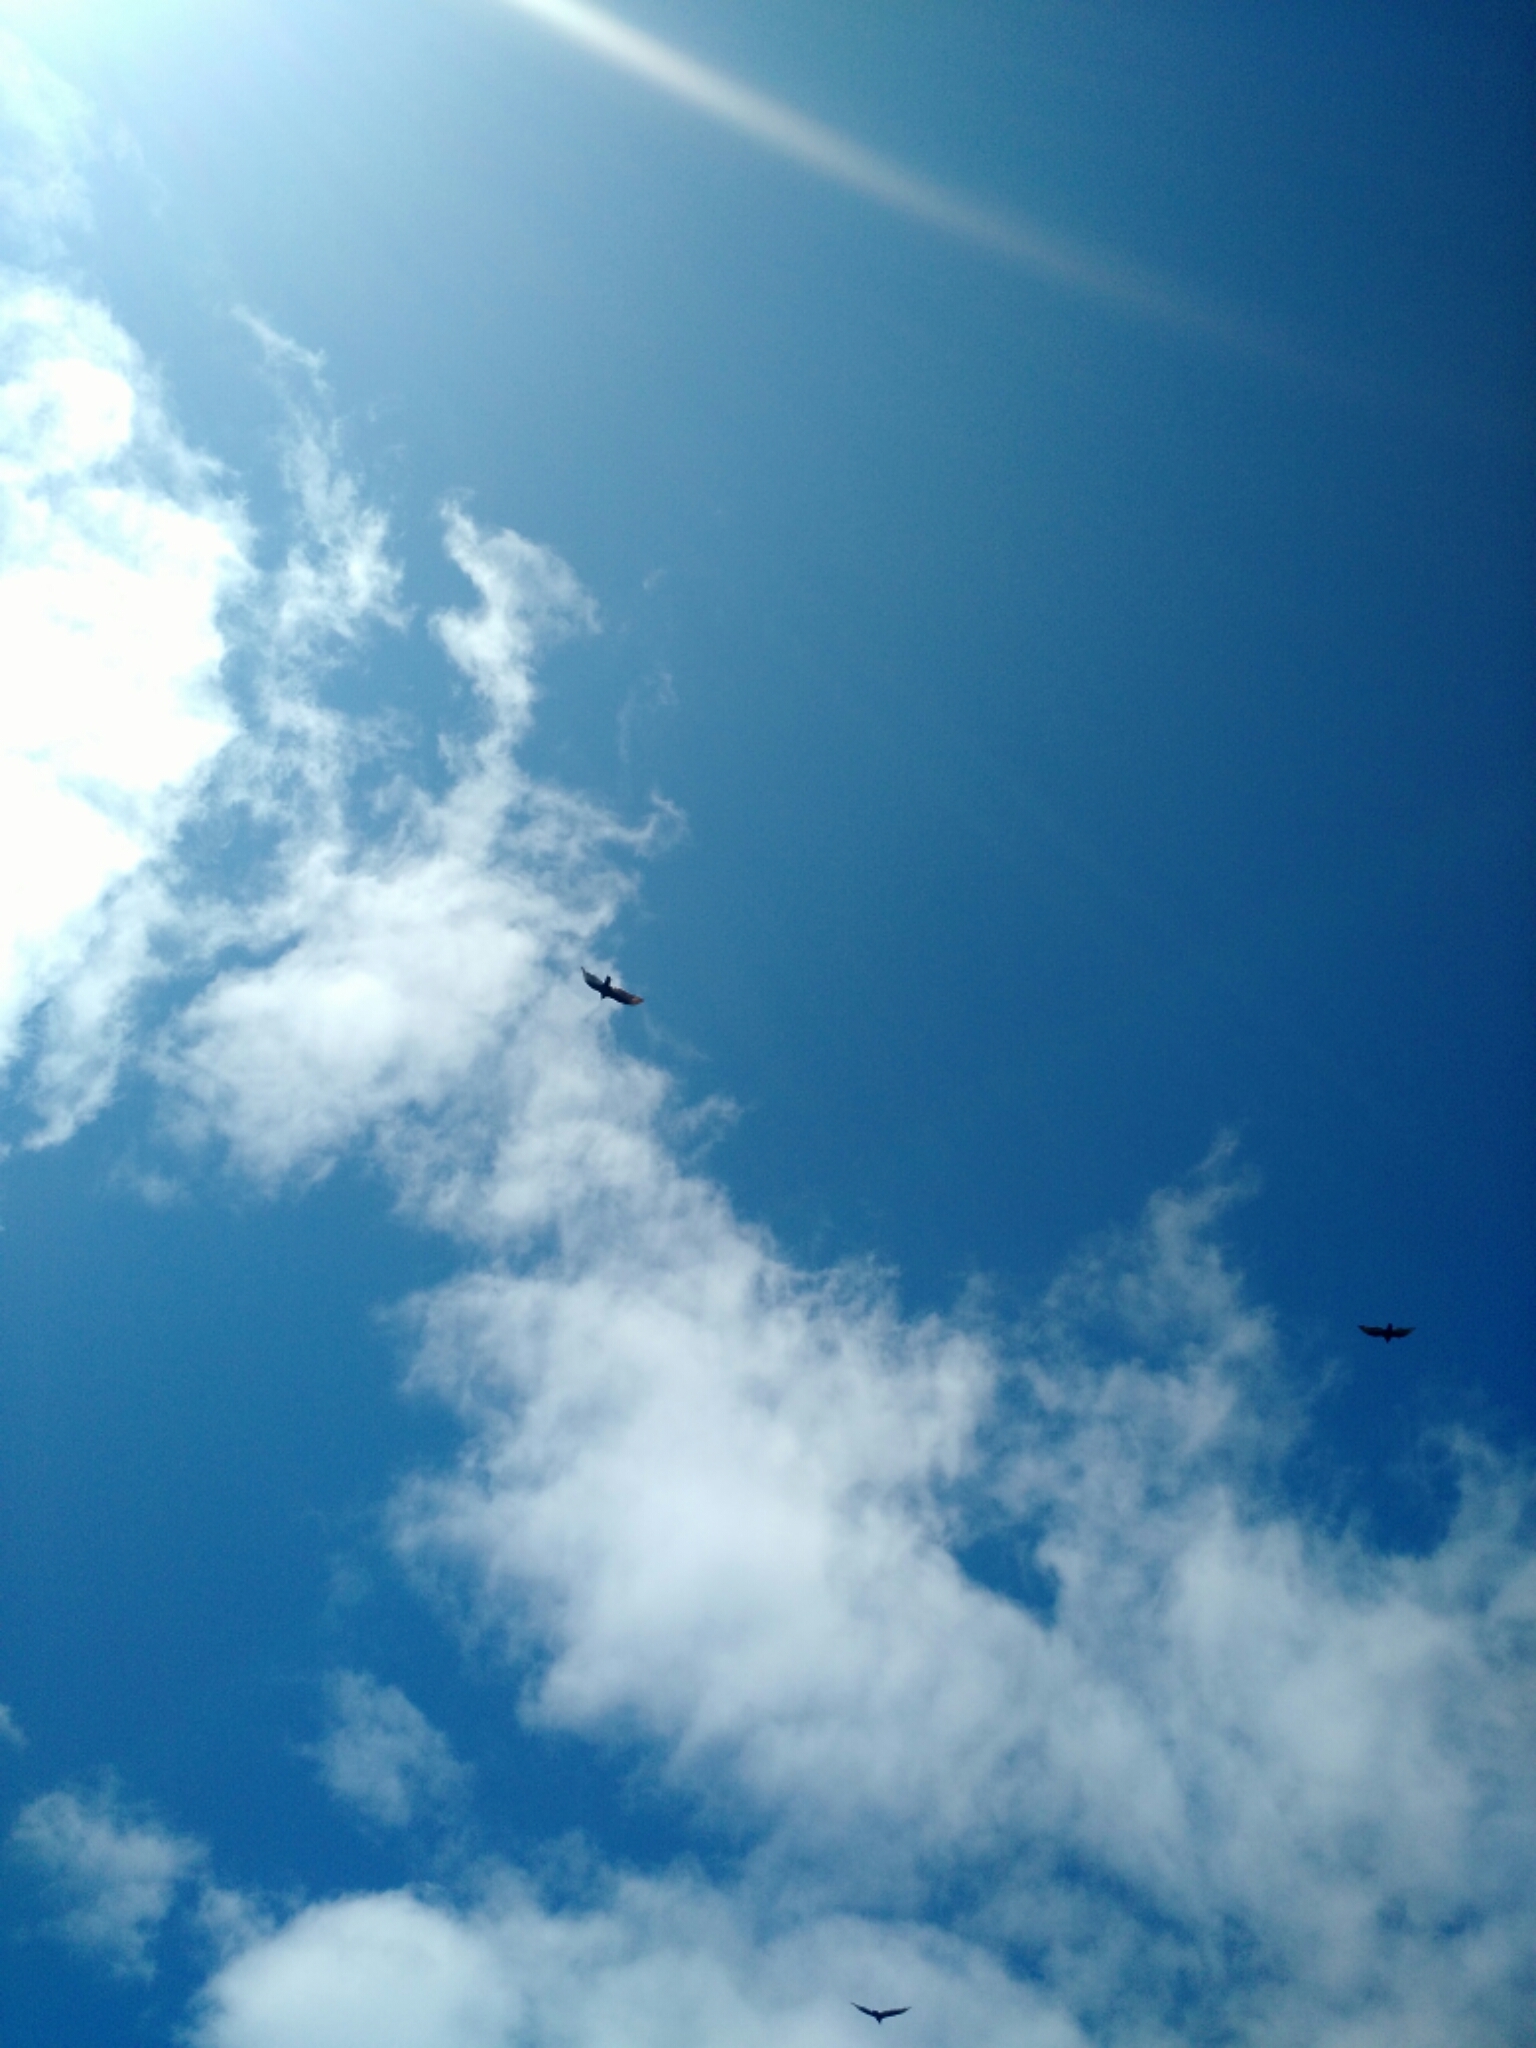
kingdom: Animalia
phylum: Chordata
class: Aves
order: Accipitriformes
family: Cathartidae
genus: Cathartes
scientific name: Cathartes aura
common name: Turkey vulture
